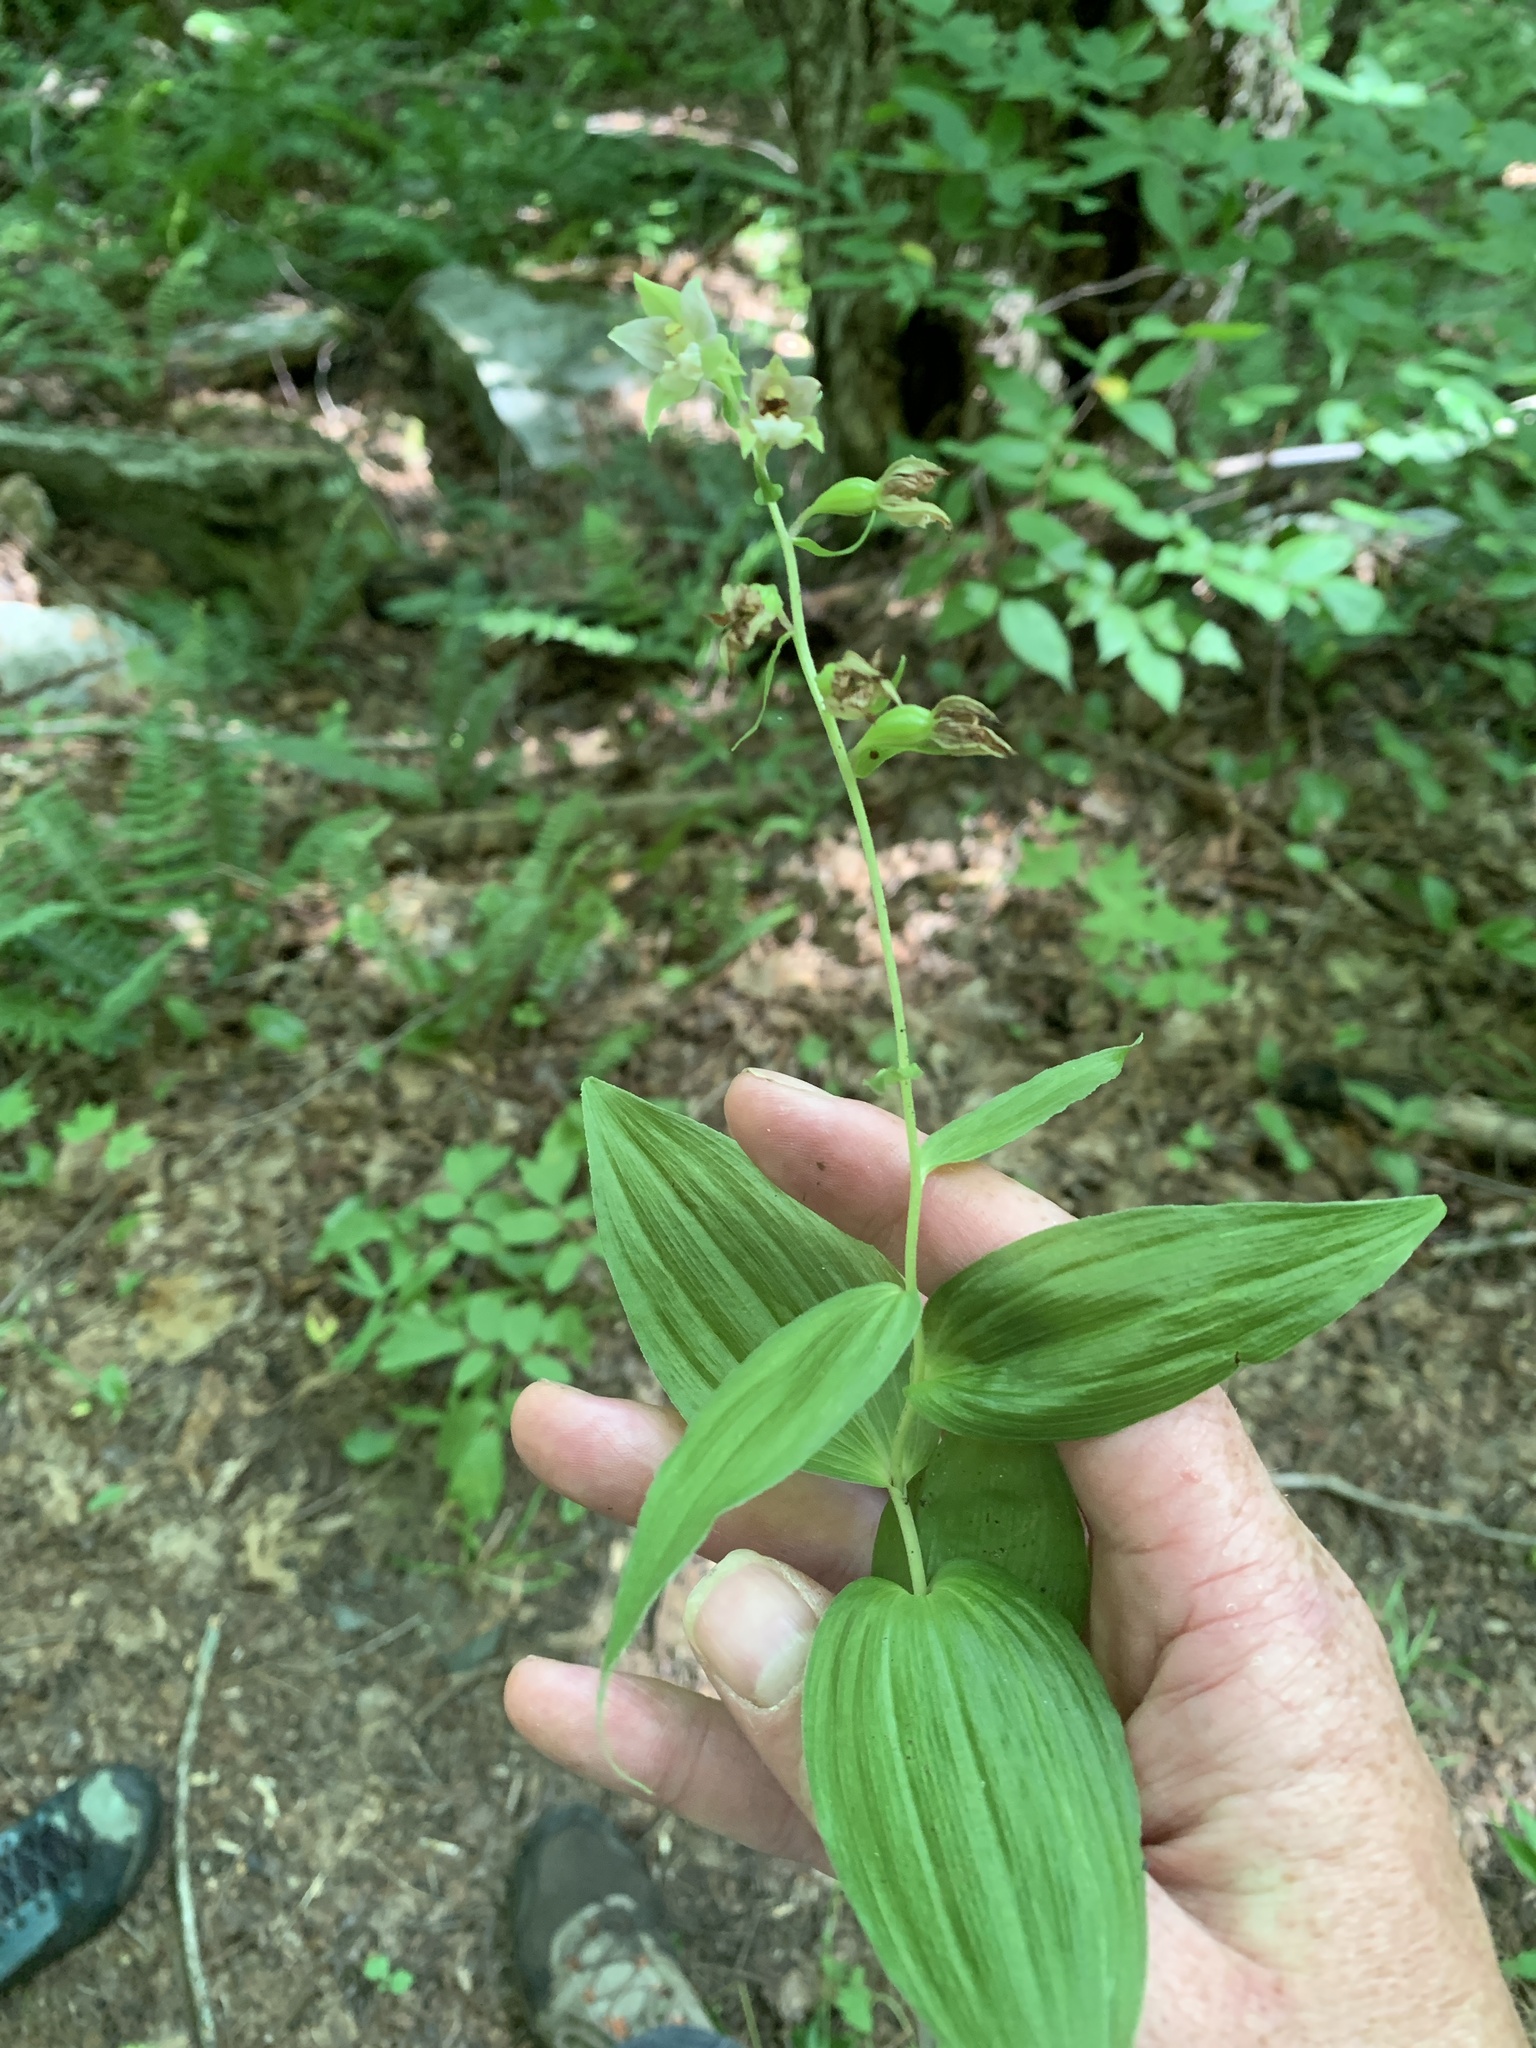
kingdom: Plantae
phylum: Tracheophyta
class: Liliopsida
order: Asparagales
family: Orchidaceae
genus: Epipactis
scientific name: Epipactis helleborine
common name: Broad-leaved helleborine
